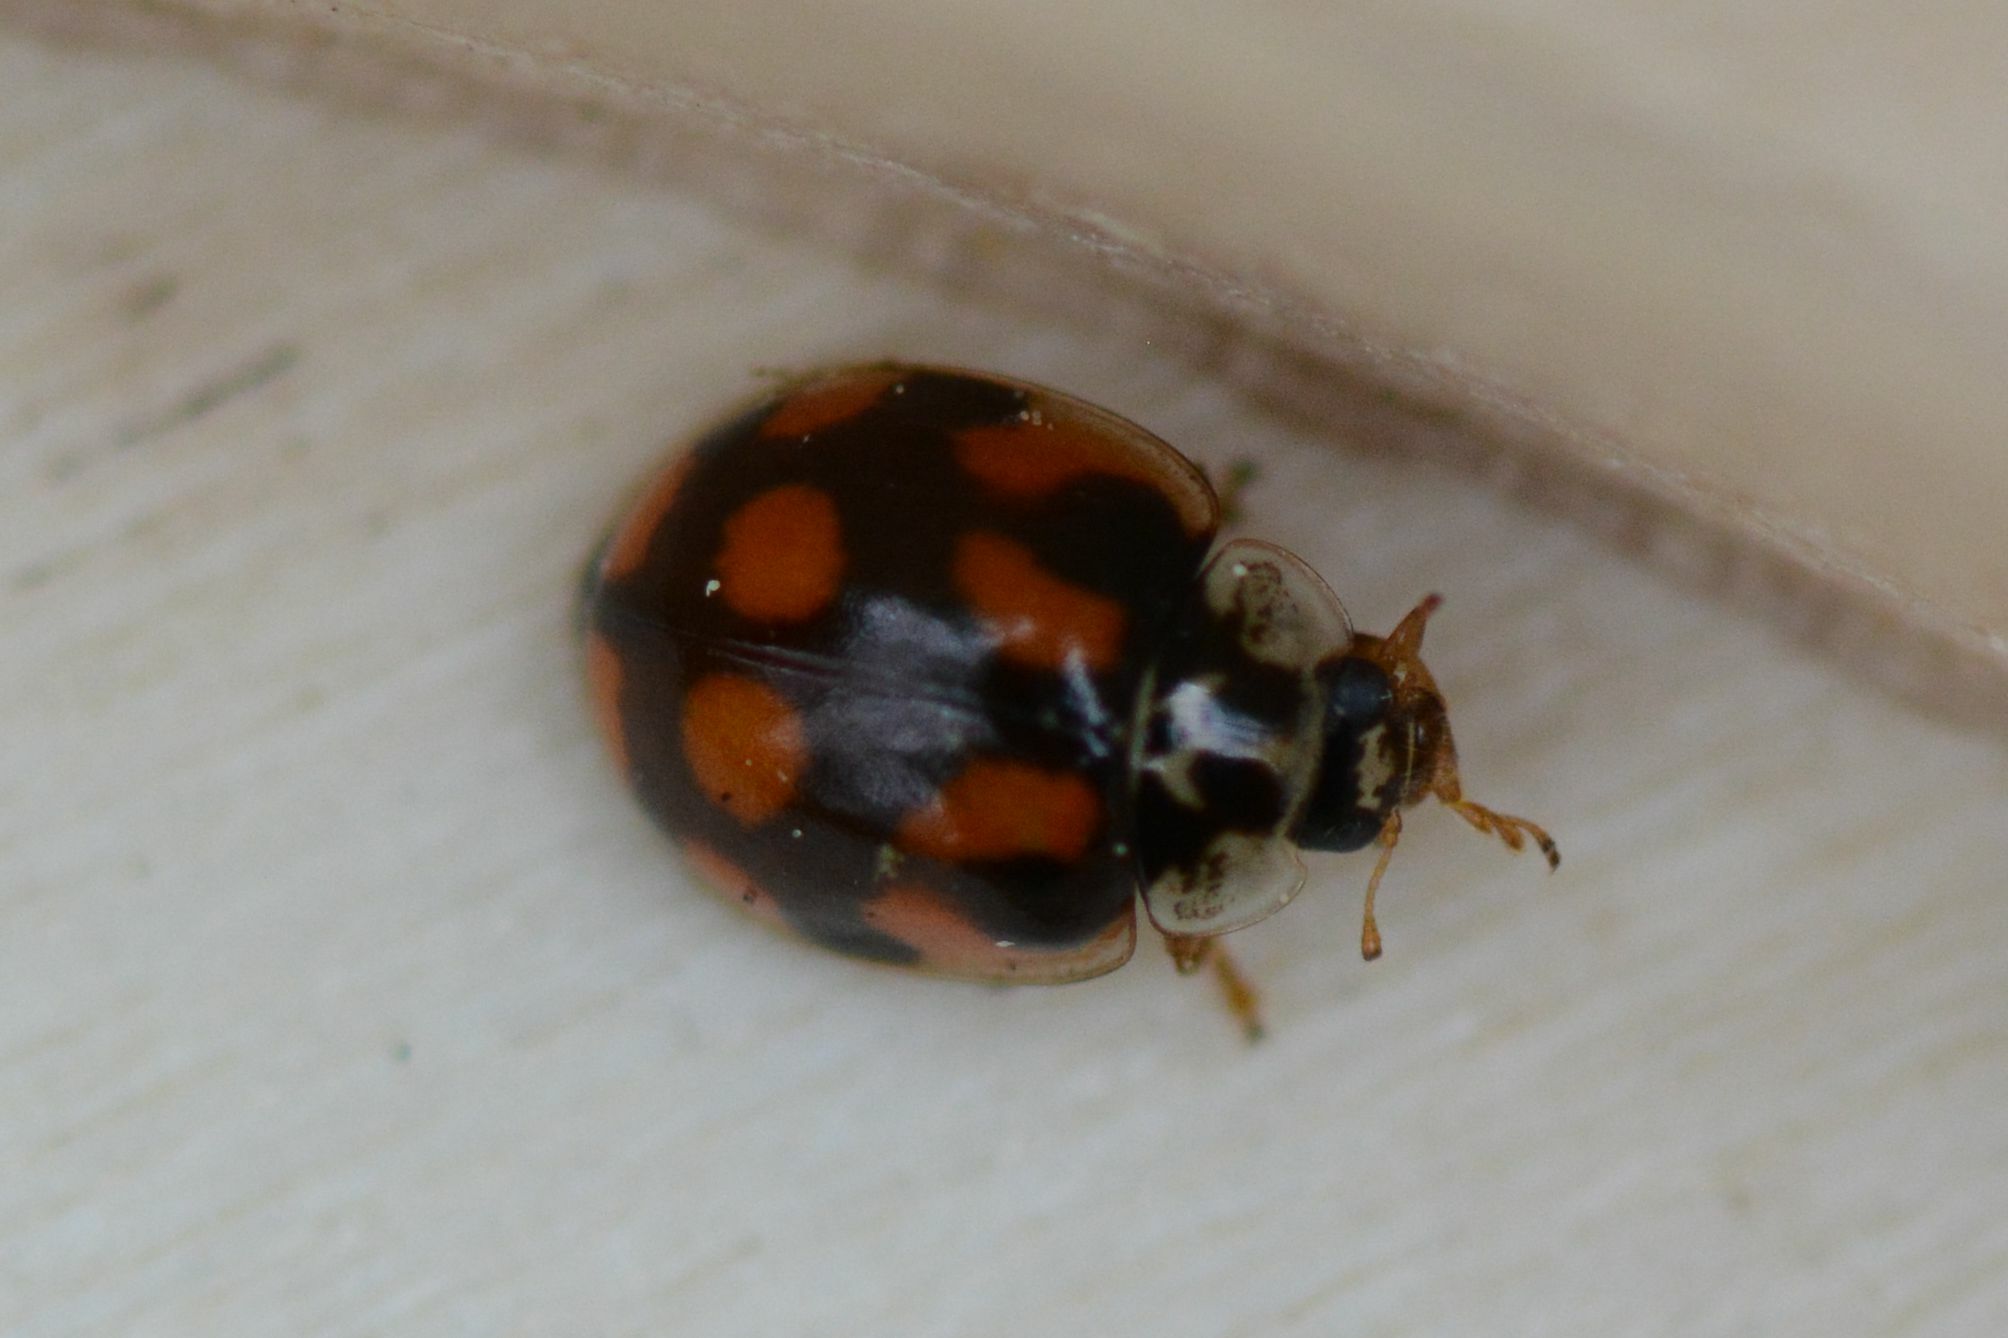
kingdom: Animalia
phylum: Arthropoda
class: Insecta
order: Coleoptera
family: Coccinellidae
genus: Adalia
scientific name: Adalia decempunctata
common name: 10-spot ladybird
